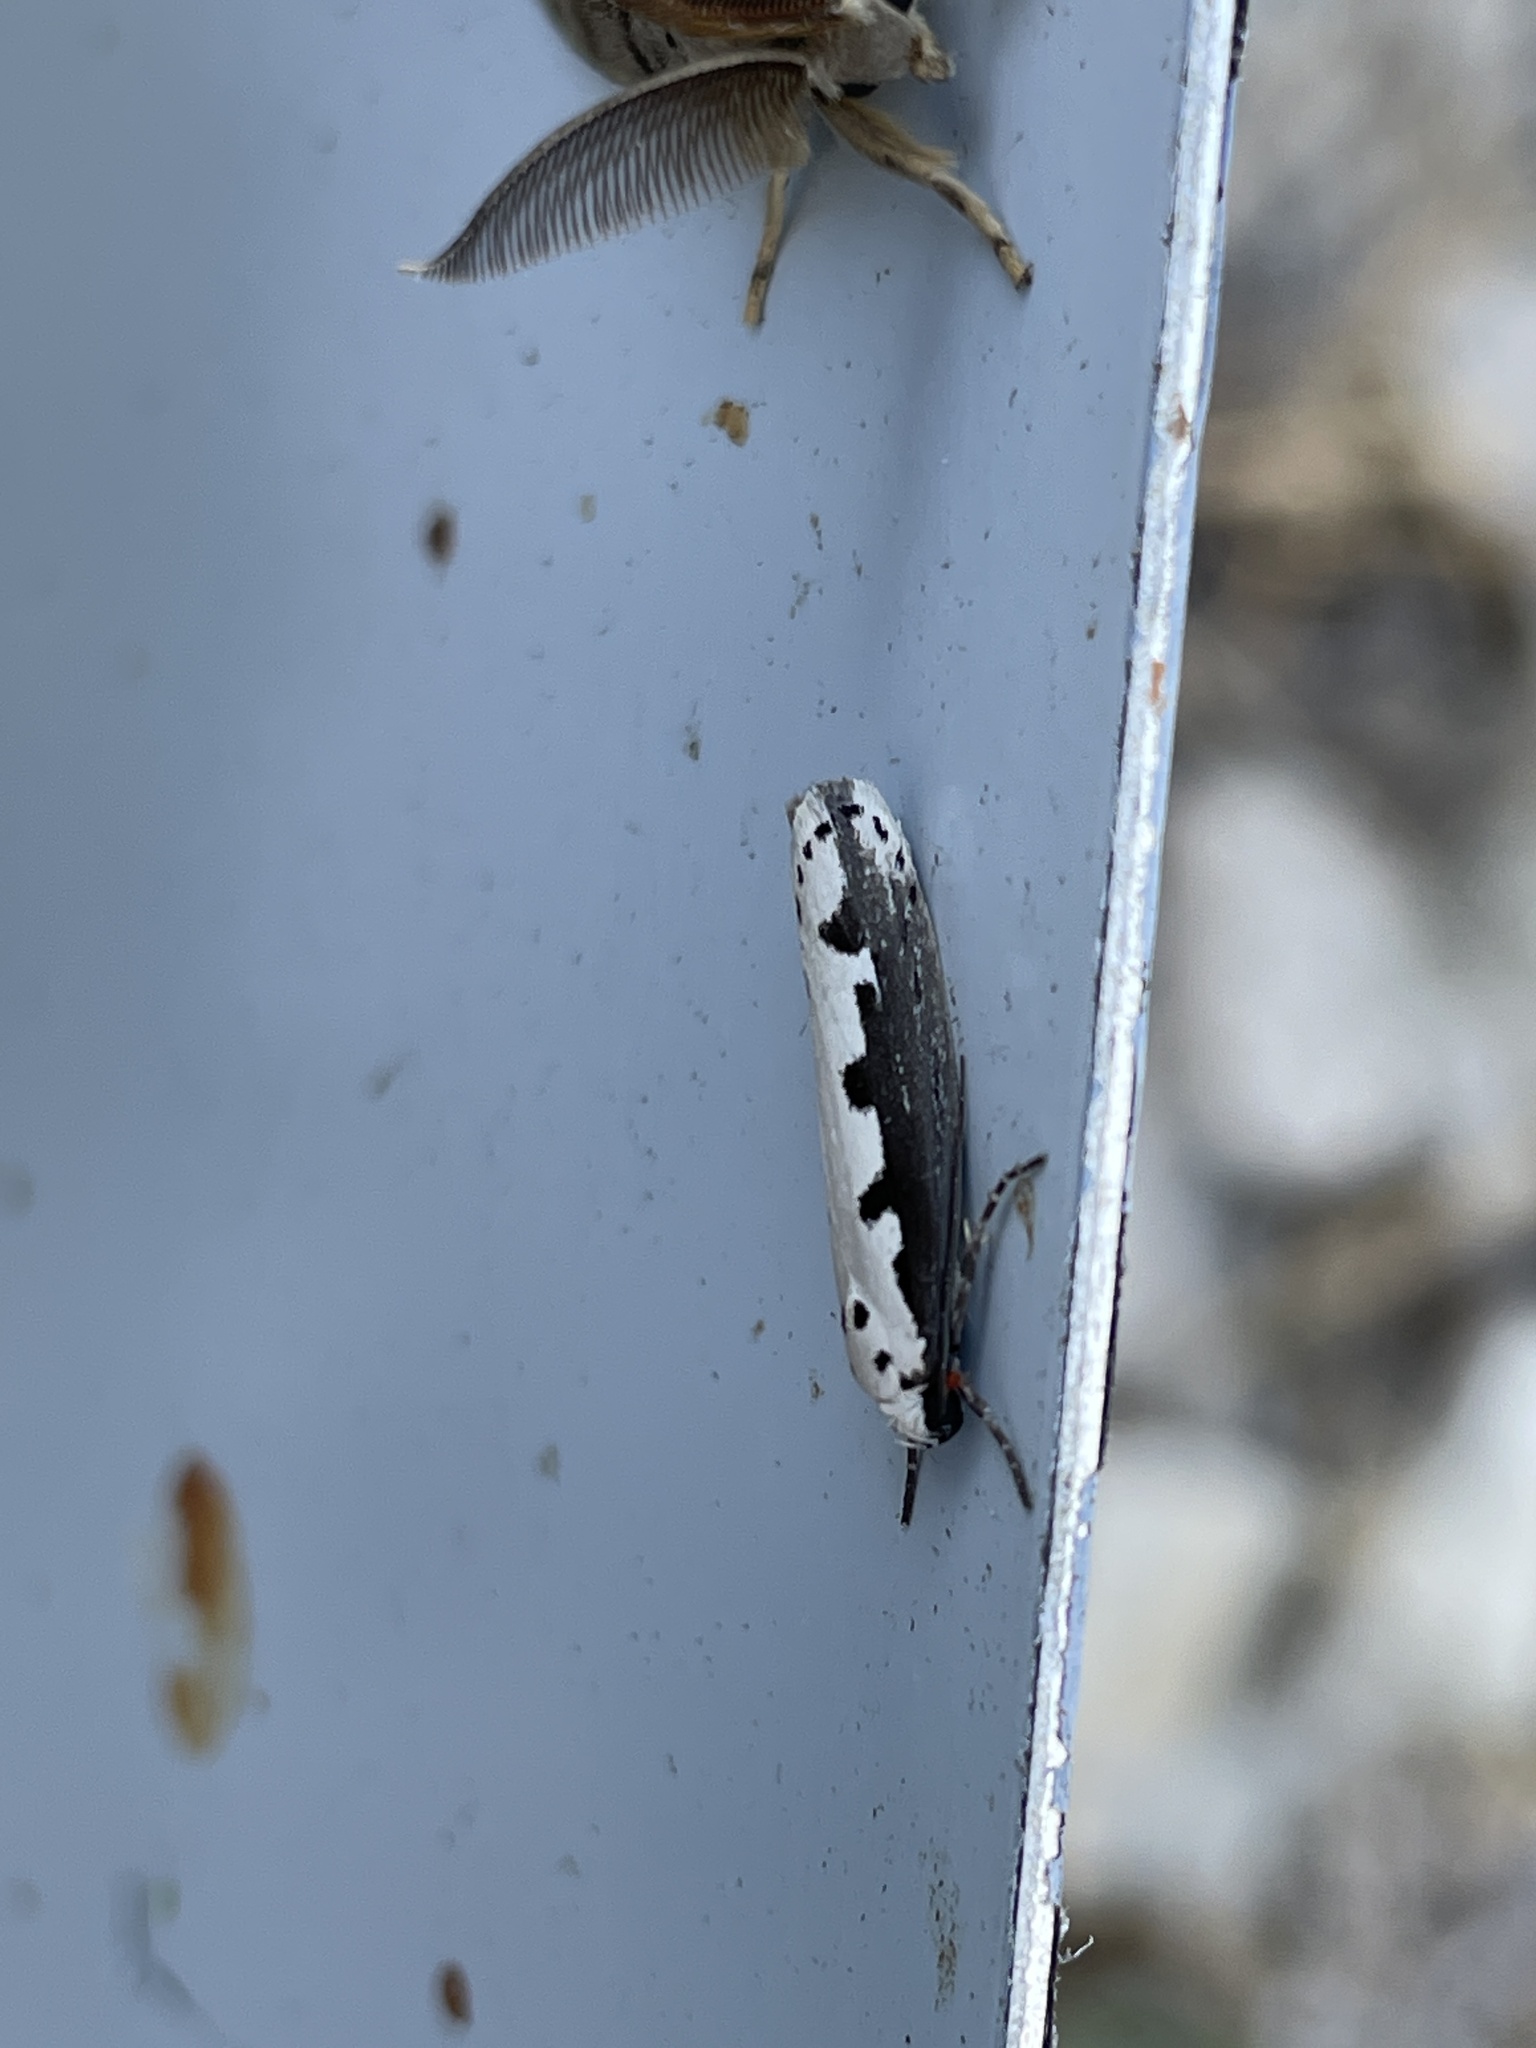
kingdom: Animalia
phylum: Arthropoda
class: Insecta
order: Lepidoptera
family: Ethmiidae
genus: Ethmia
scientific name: Ethmia bipunctella
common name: Bordered ermel
